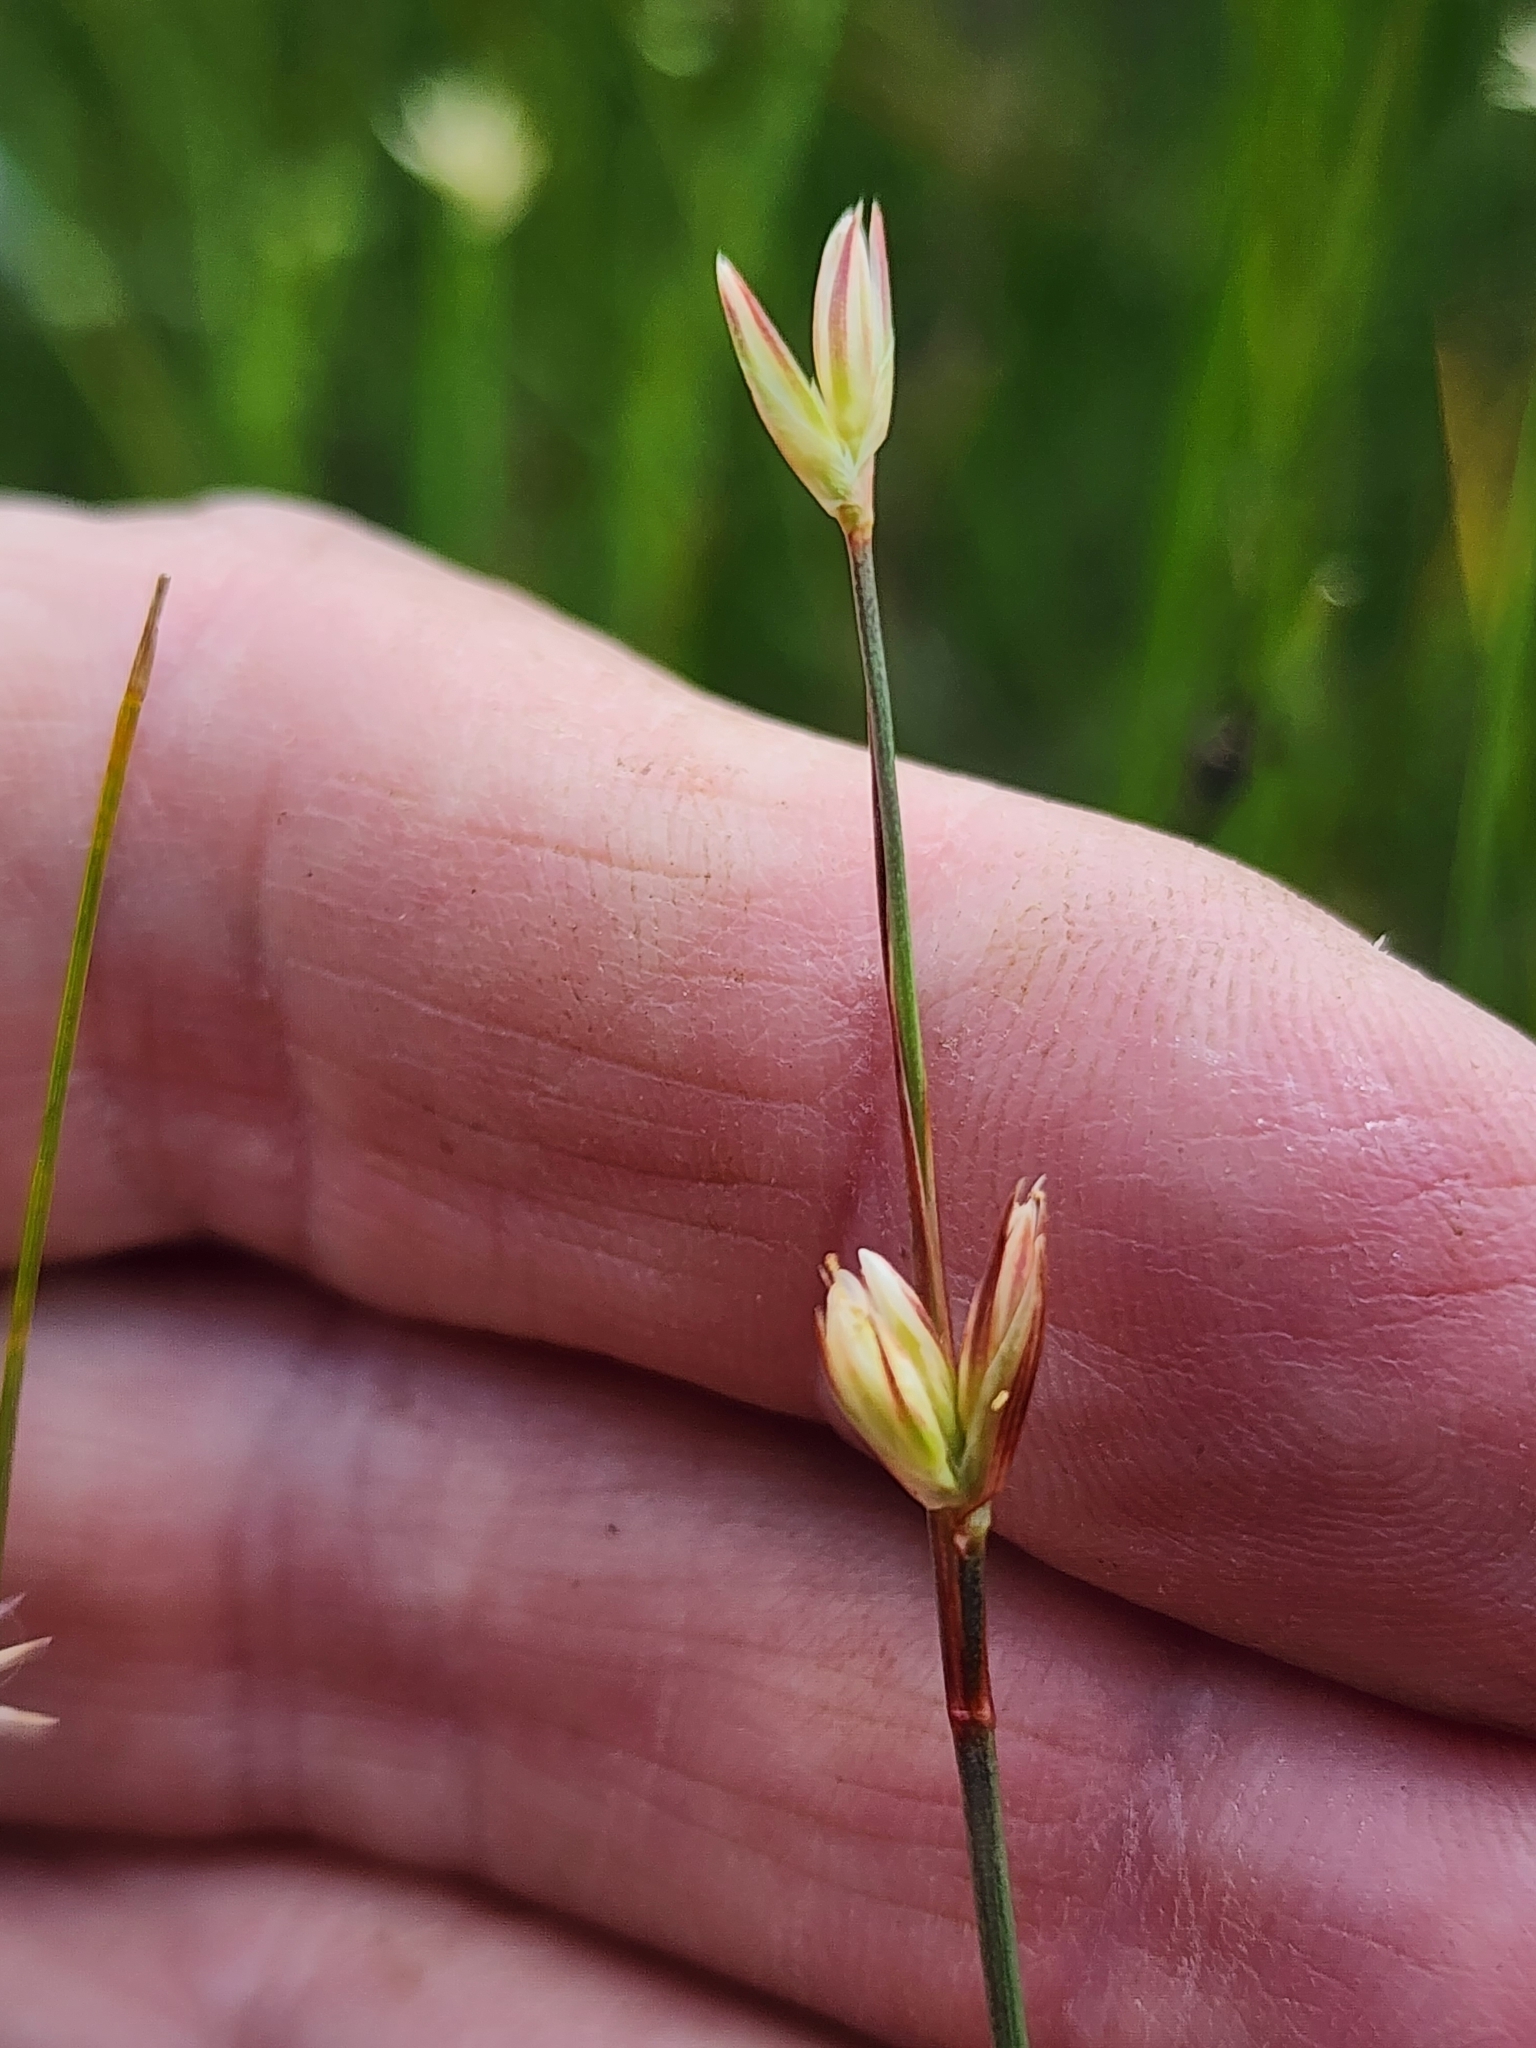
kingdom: Plantae
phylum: Tracheophyta
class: Liliopsida
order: Poales
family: Juncaceae
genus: Juncus
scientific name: Juncus stygius
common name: Bog rush
